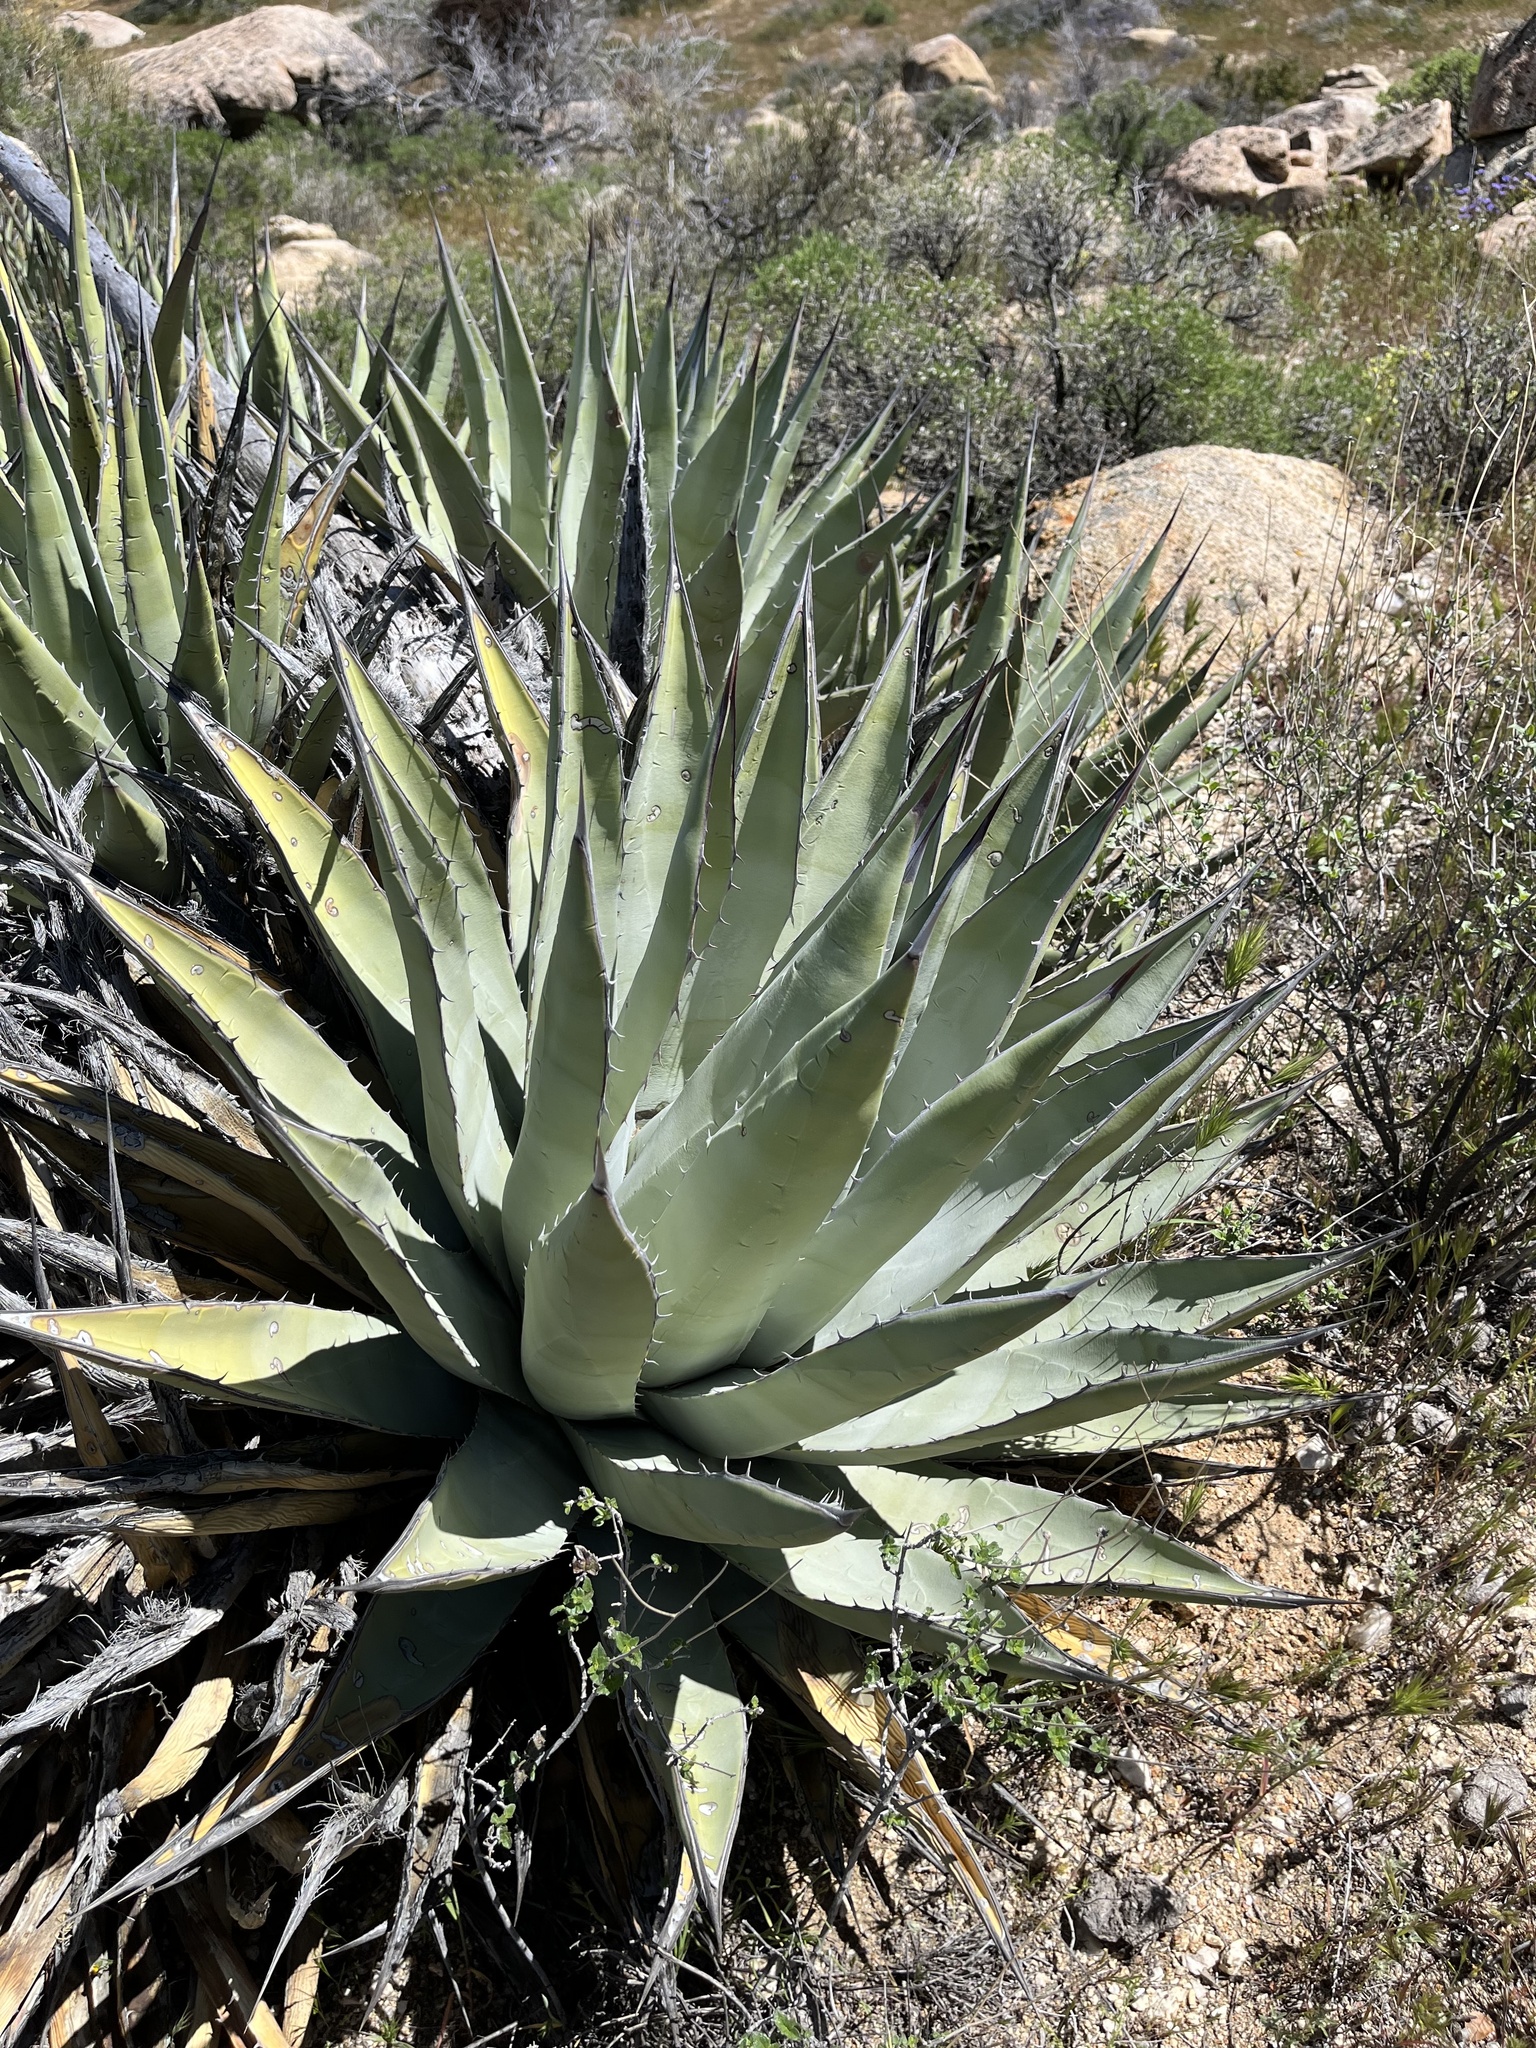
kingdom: Plantae
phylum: Tracheophyta
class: Liliopsida
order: Asparagales
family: Asparagaceae
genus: Agave
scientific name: Agave deserti
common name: Desert agave
